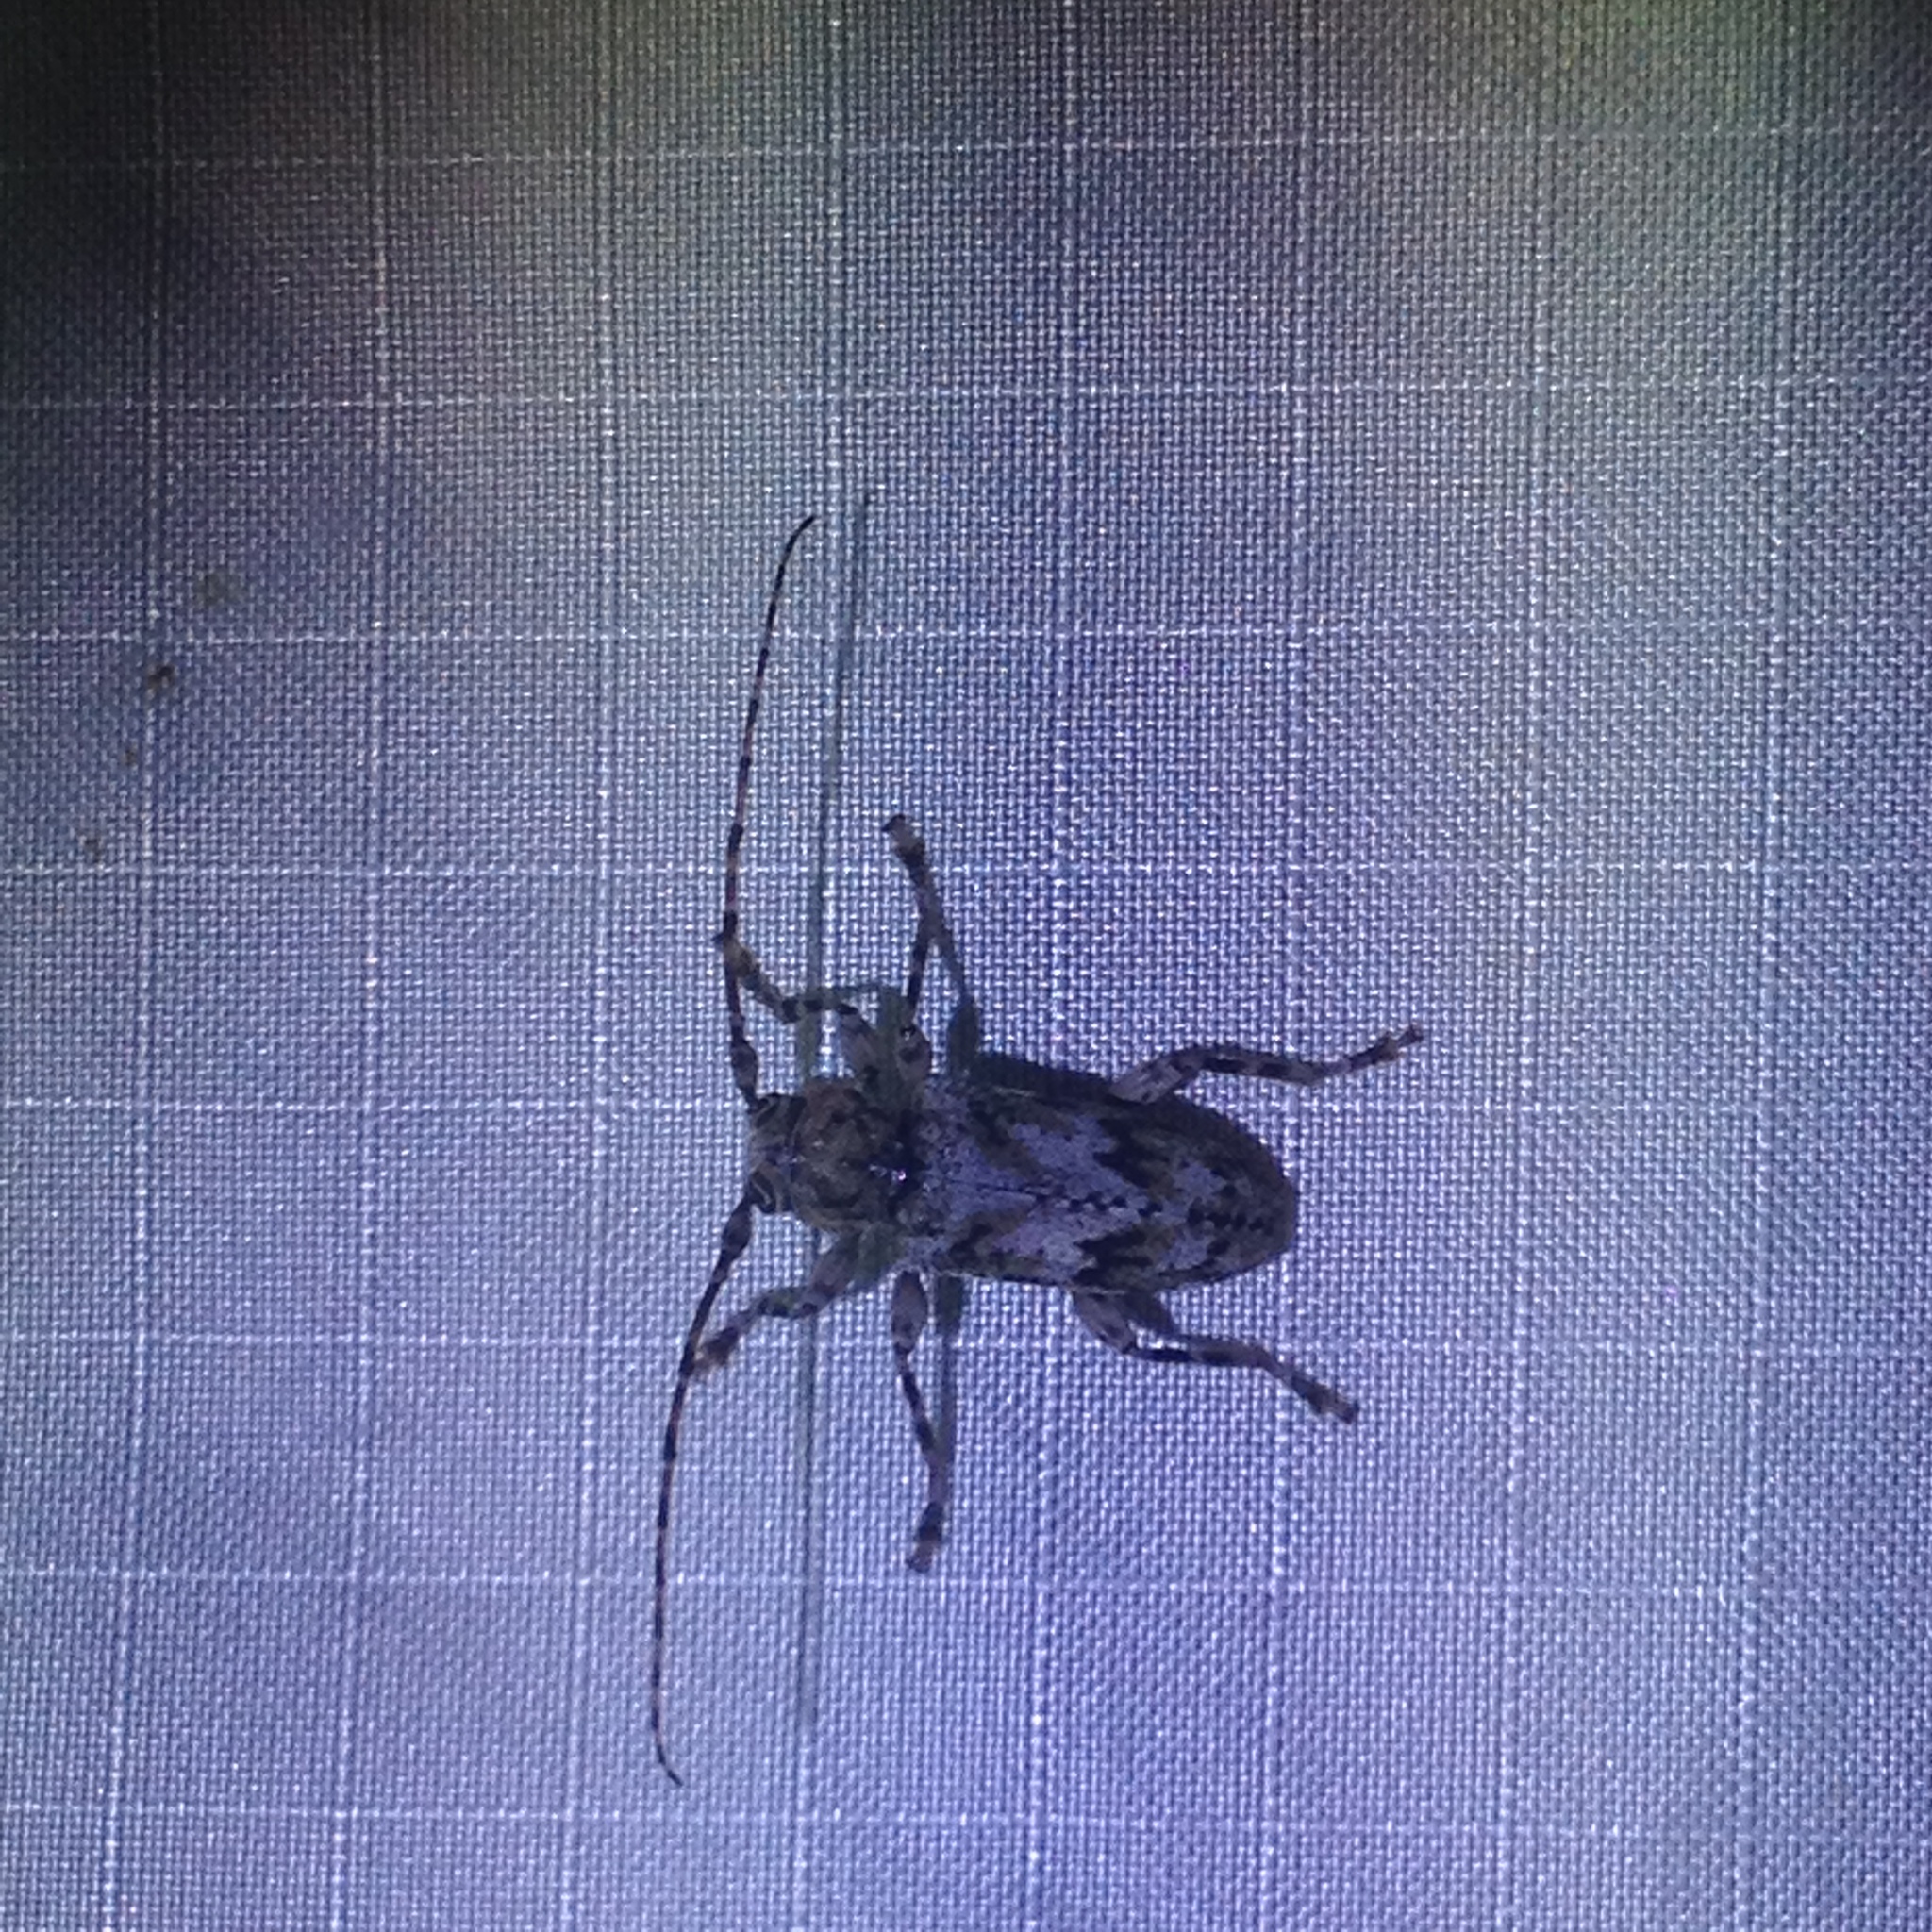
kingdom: Animalia
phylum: Arthropoda
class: Insecta
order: Coleoptera
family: Cerambycidae
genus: Aegomorphus
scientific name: Aegomorphus modestus
